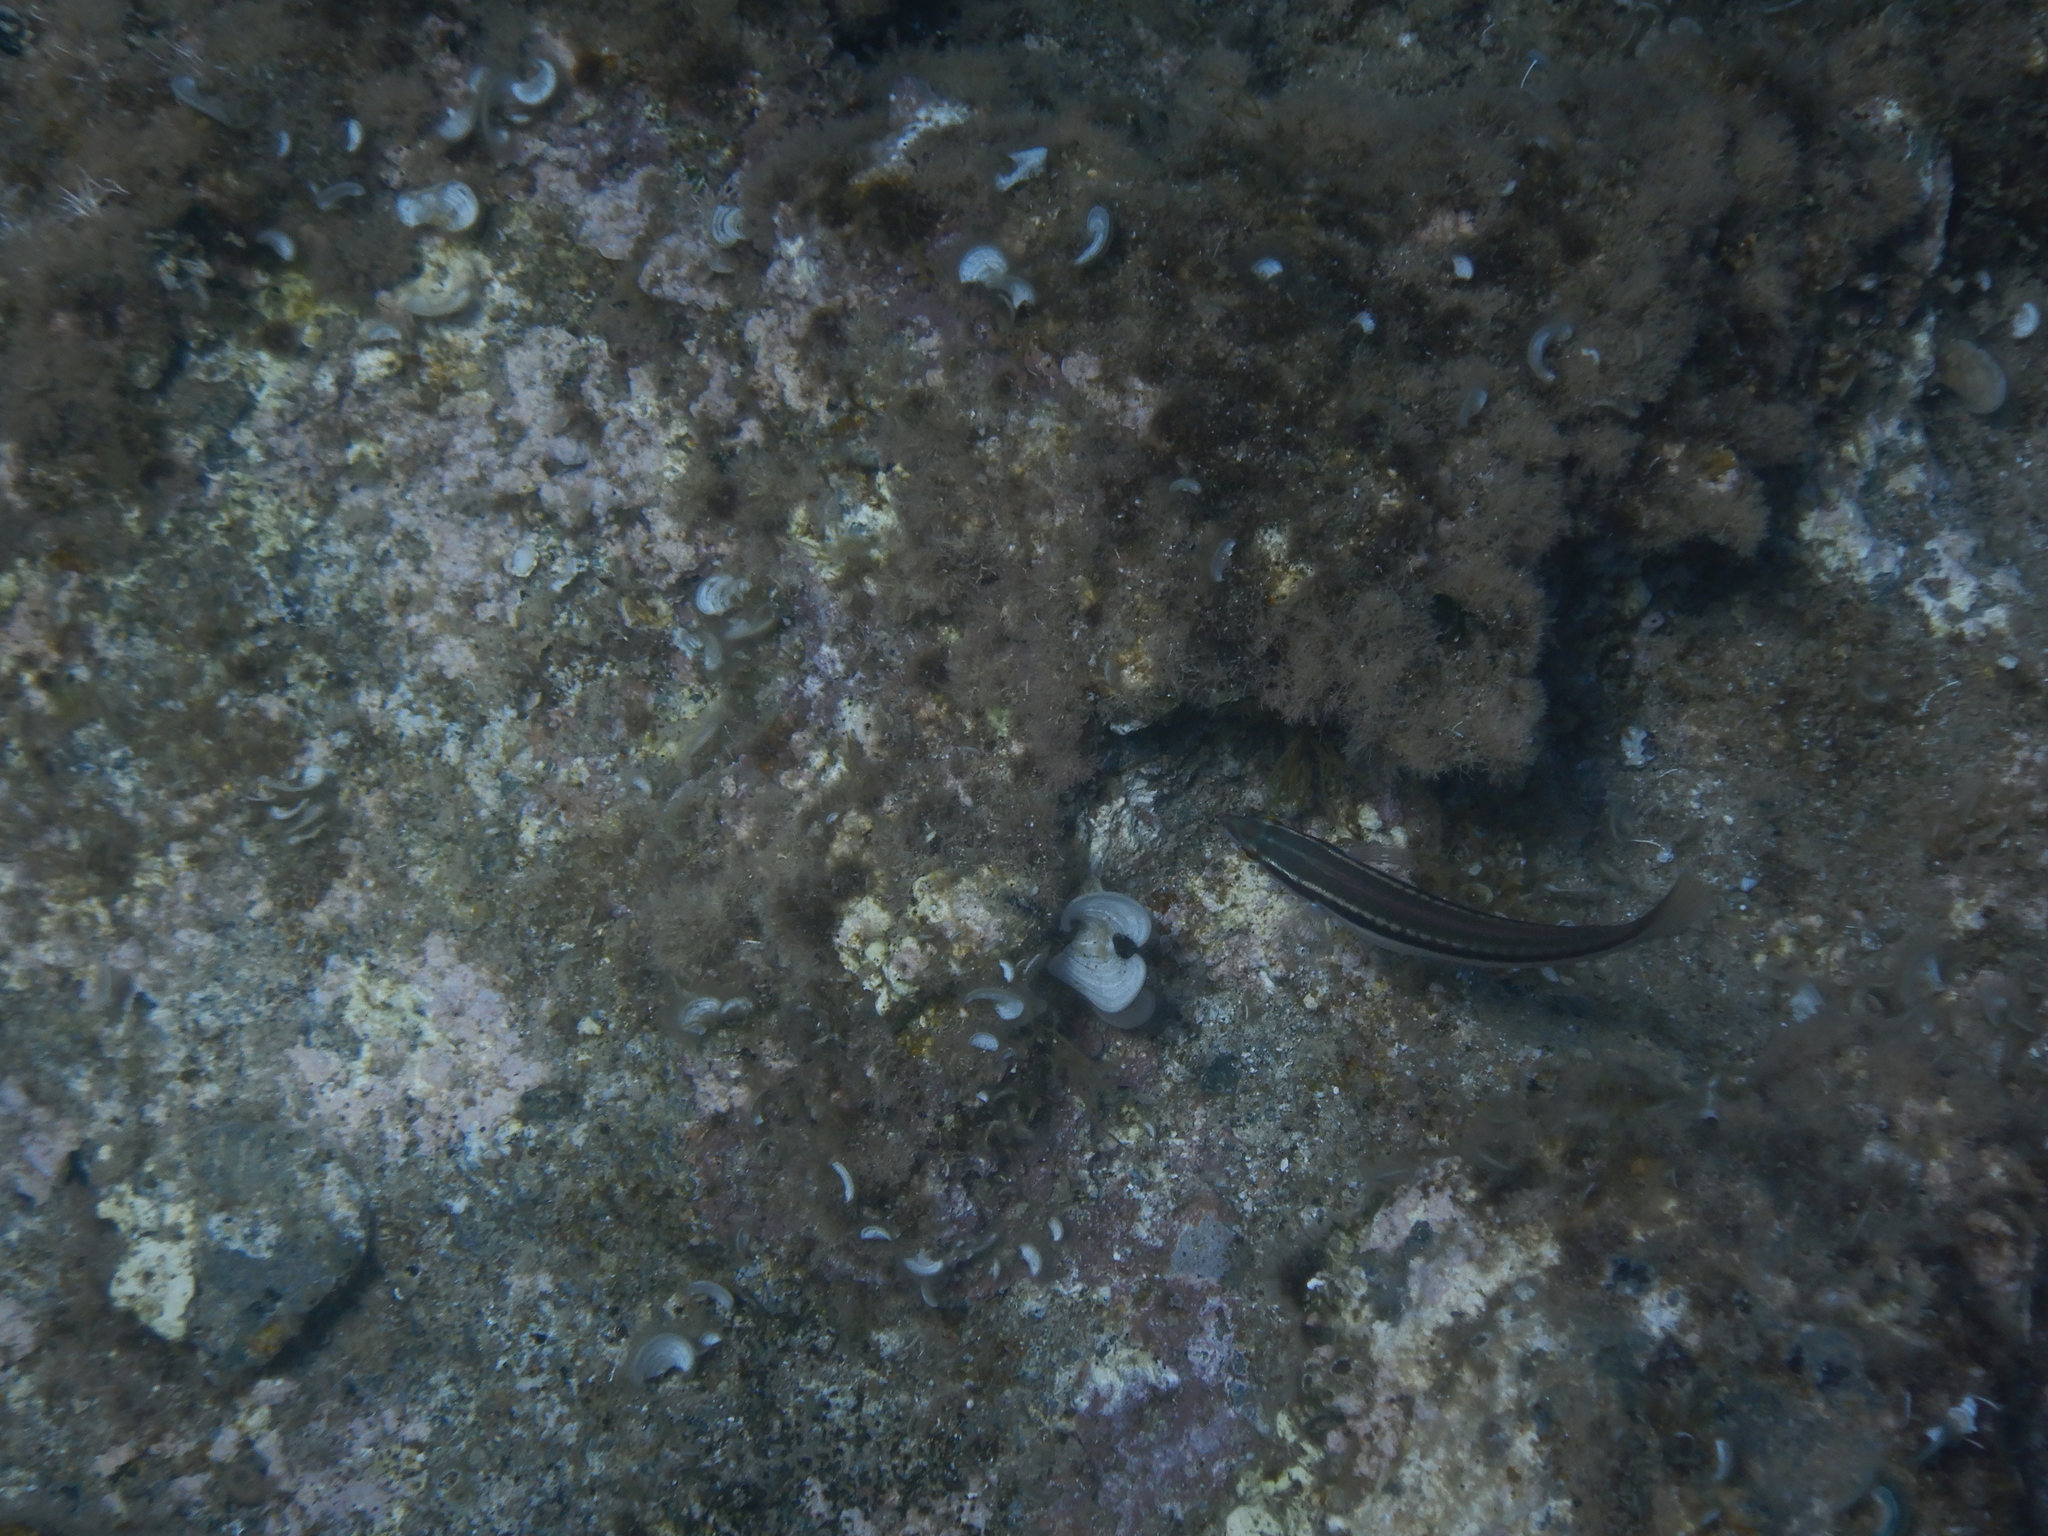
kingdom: Animalia
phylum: Chordata
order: Perciformes
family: Labridae
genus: Coris
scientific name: Coris julis
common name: Rainbow wrasse
